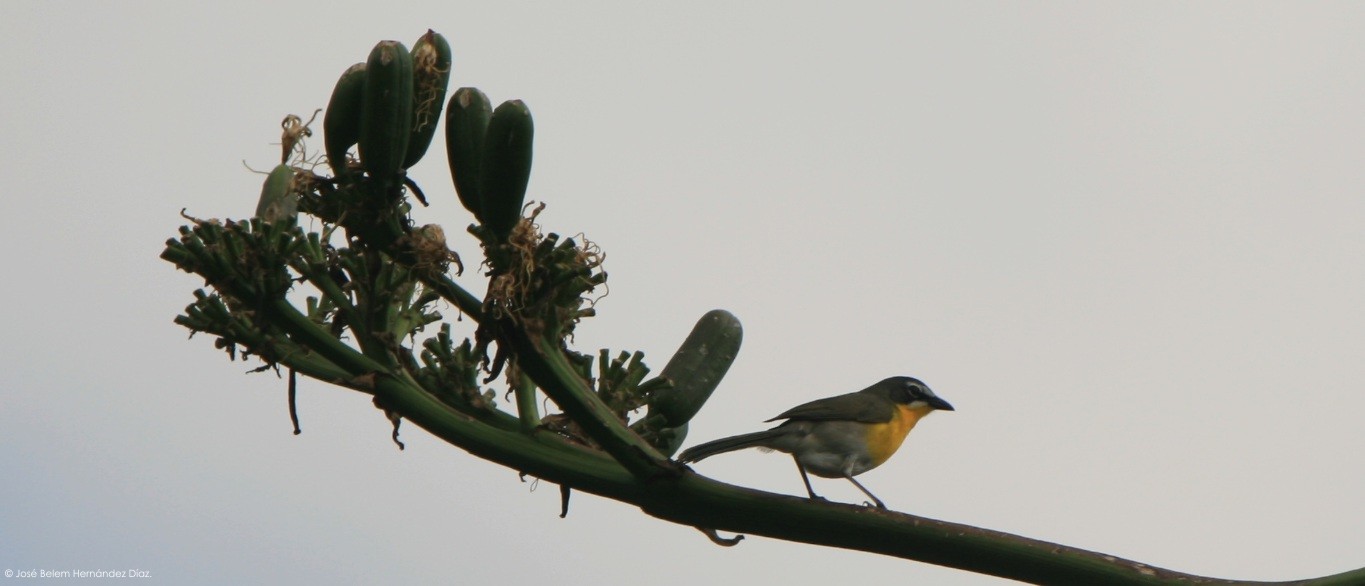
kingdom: Animalia
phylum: Chordata
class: Aves
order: Passeriformes
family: Parulidae
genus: Icteria
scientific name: Icteria virens
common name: Yellow-breasted chat
